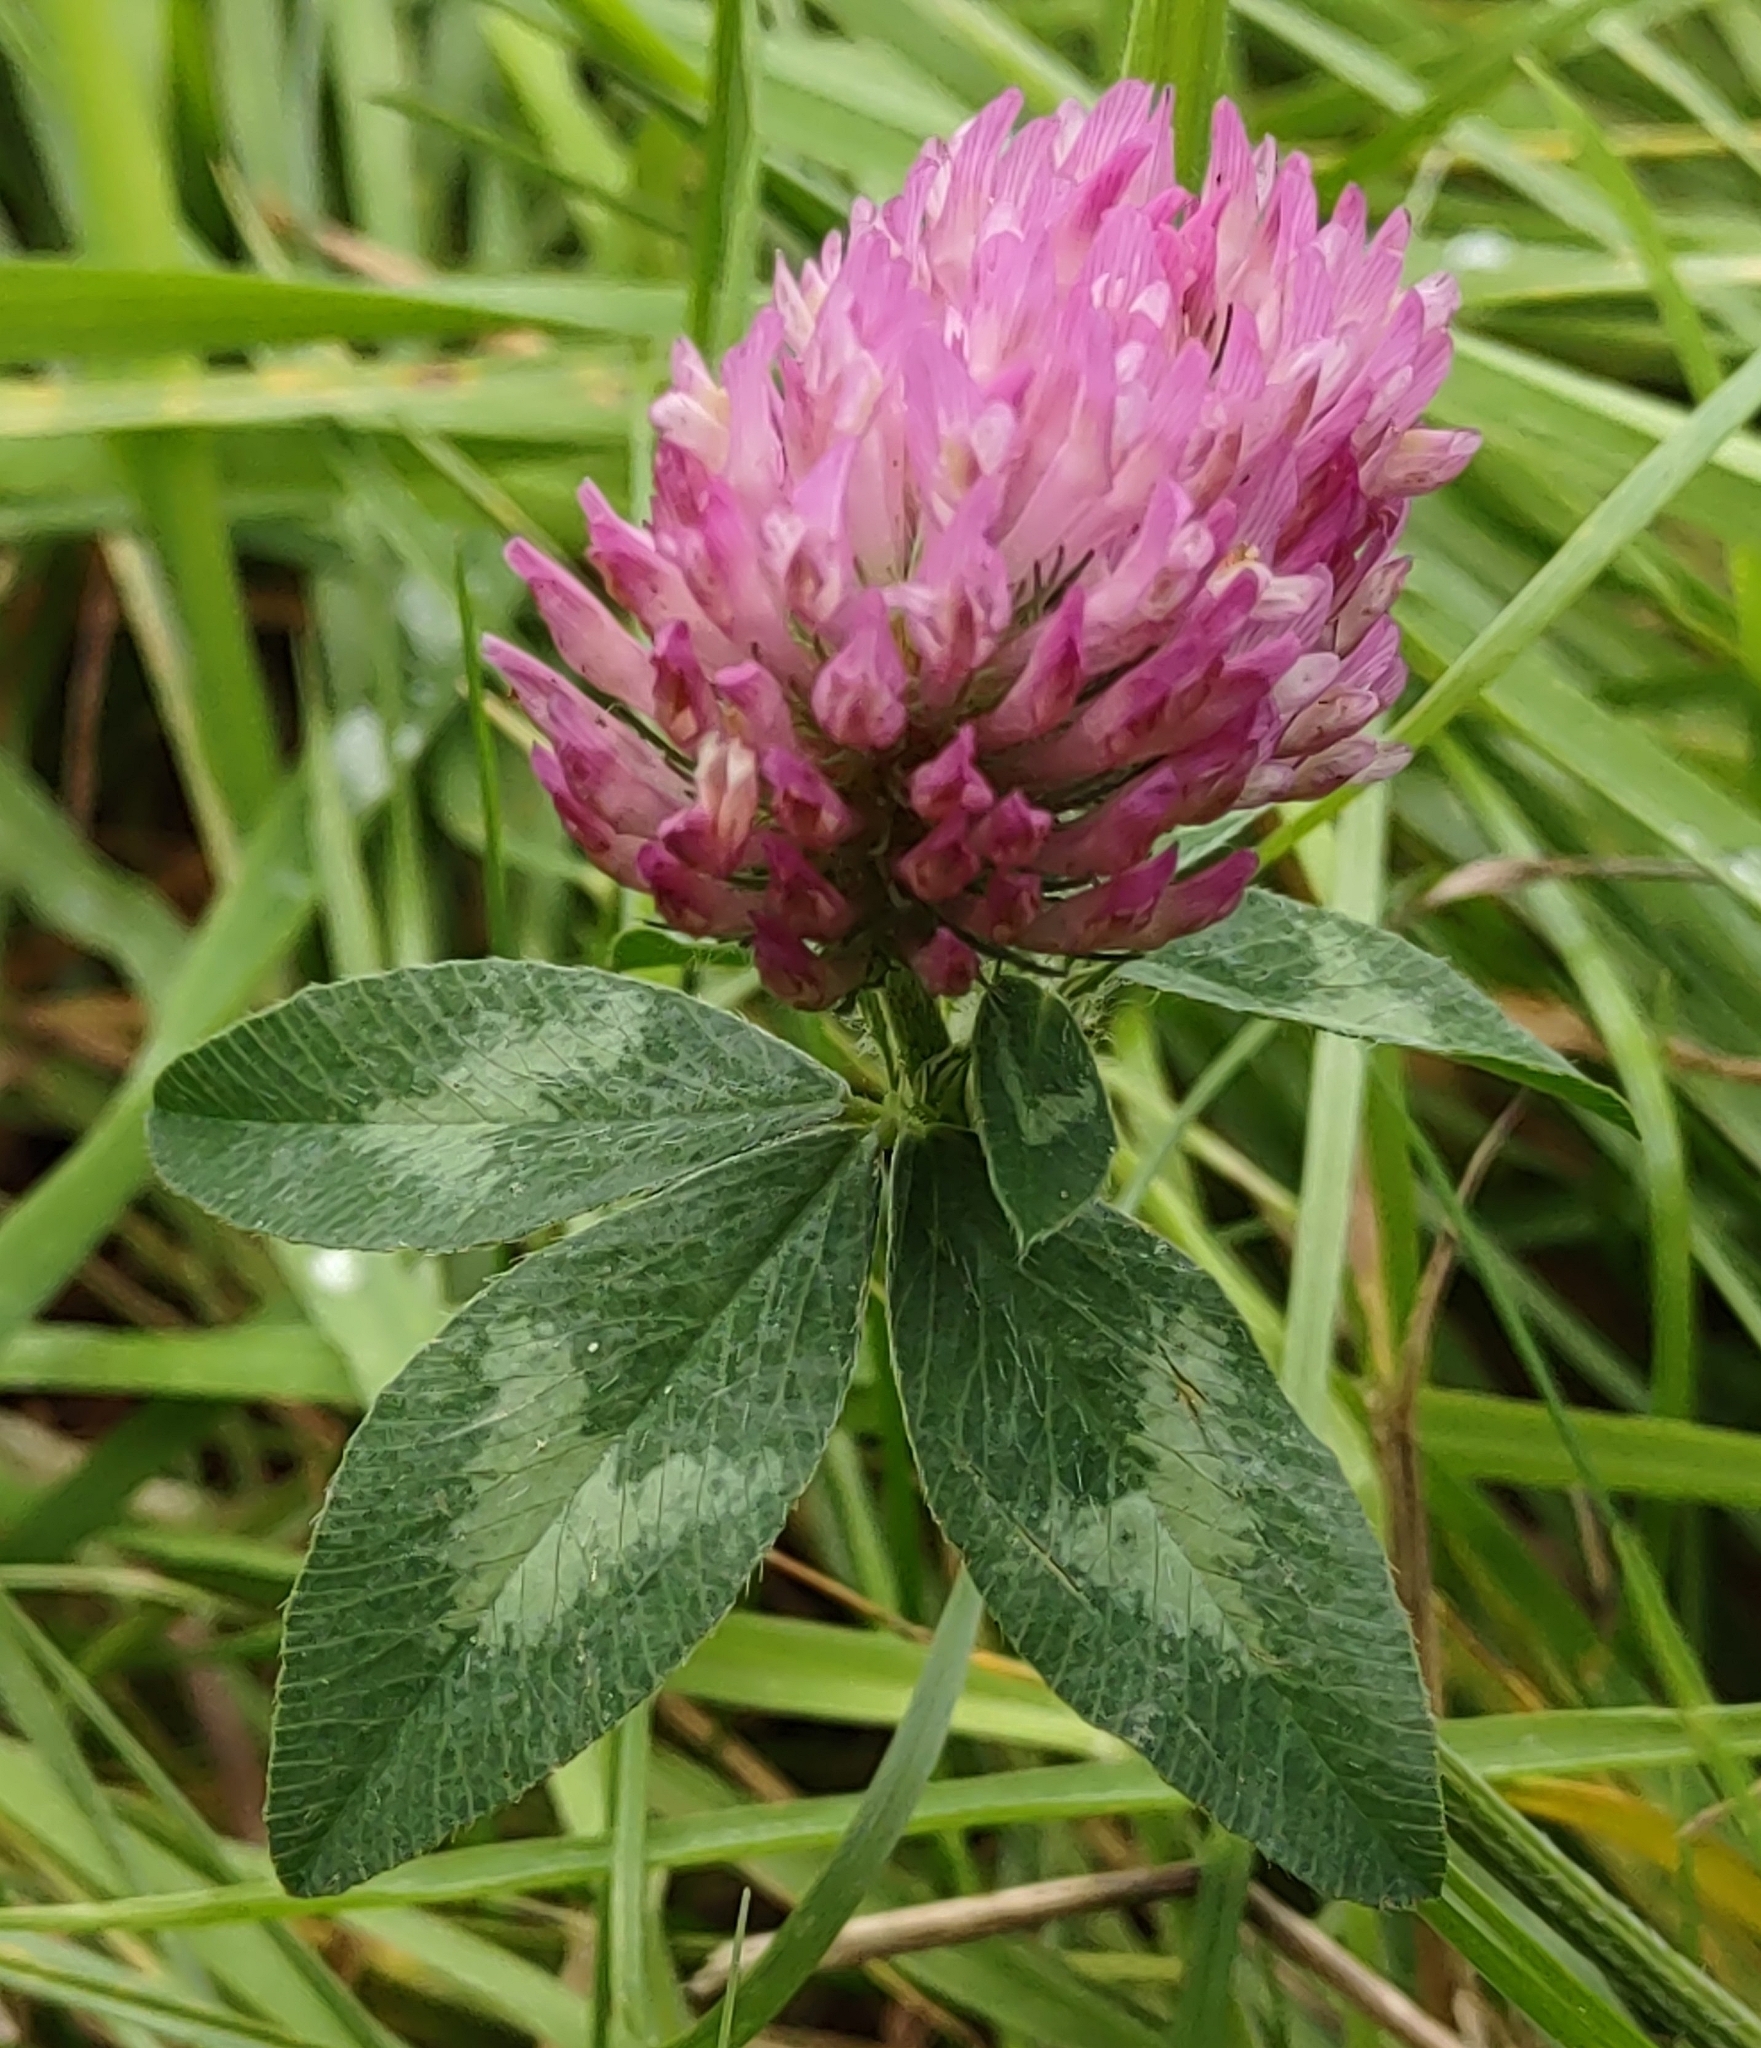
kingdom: Plantae
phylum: Tracheophyta
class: Magnoliopsida
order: Fabales
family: Fabaceae
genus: Trifolium
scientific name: Trifolium pratense
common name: Red clover
